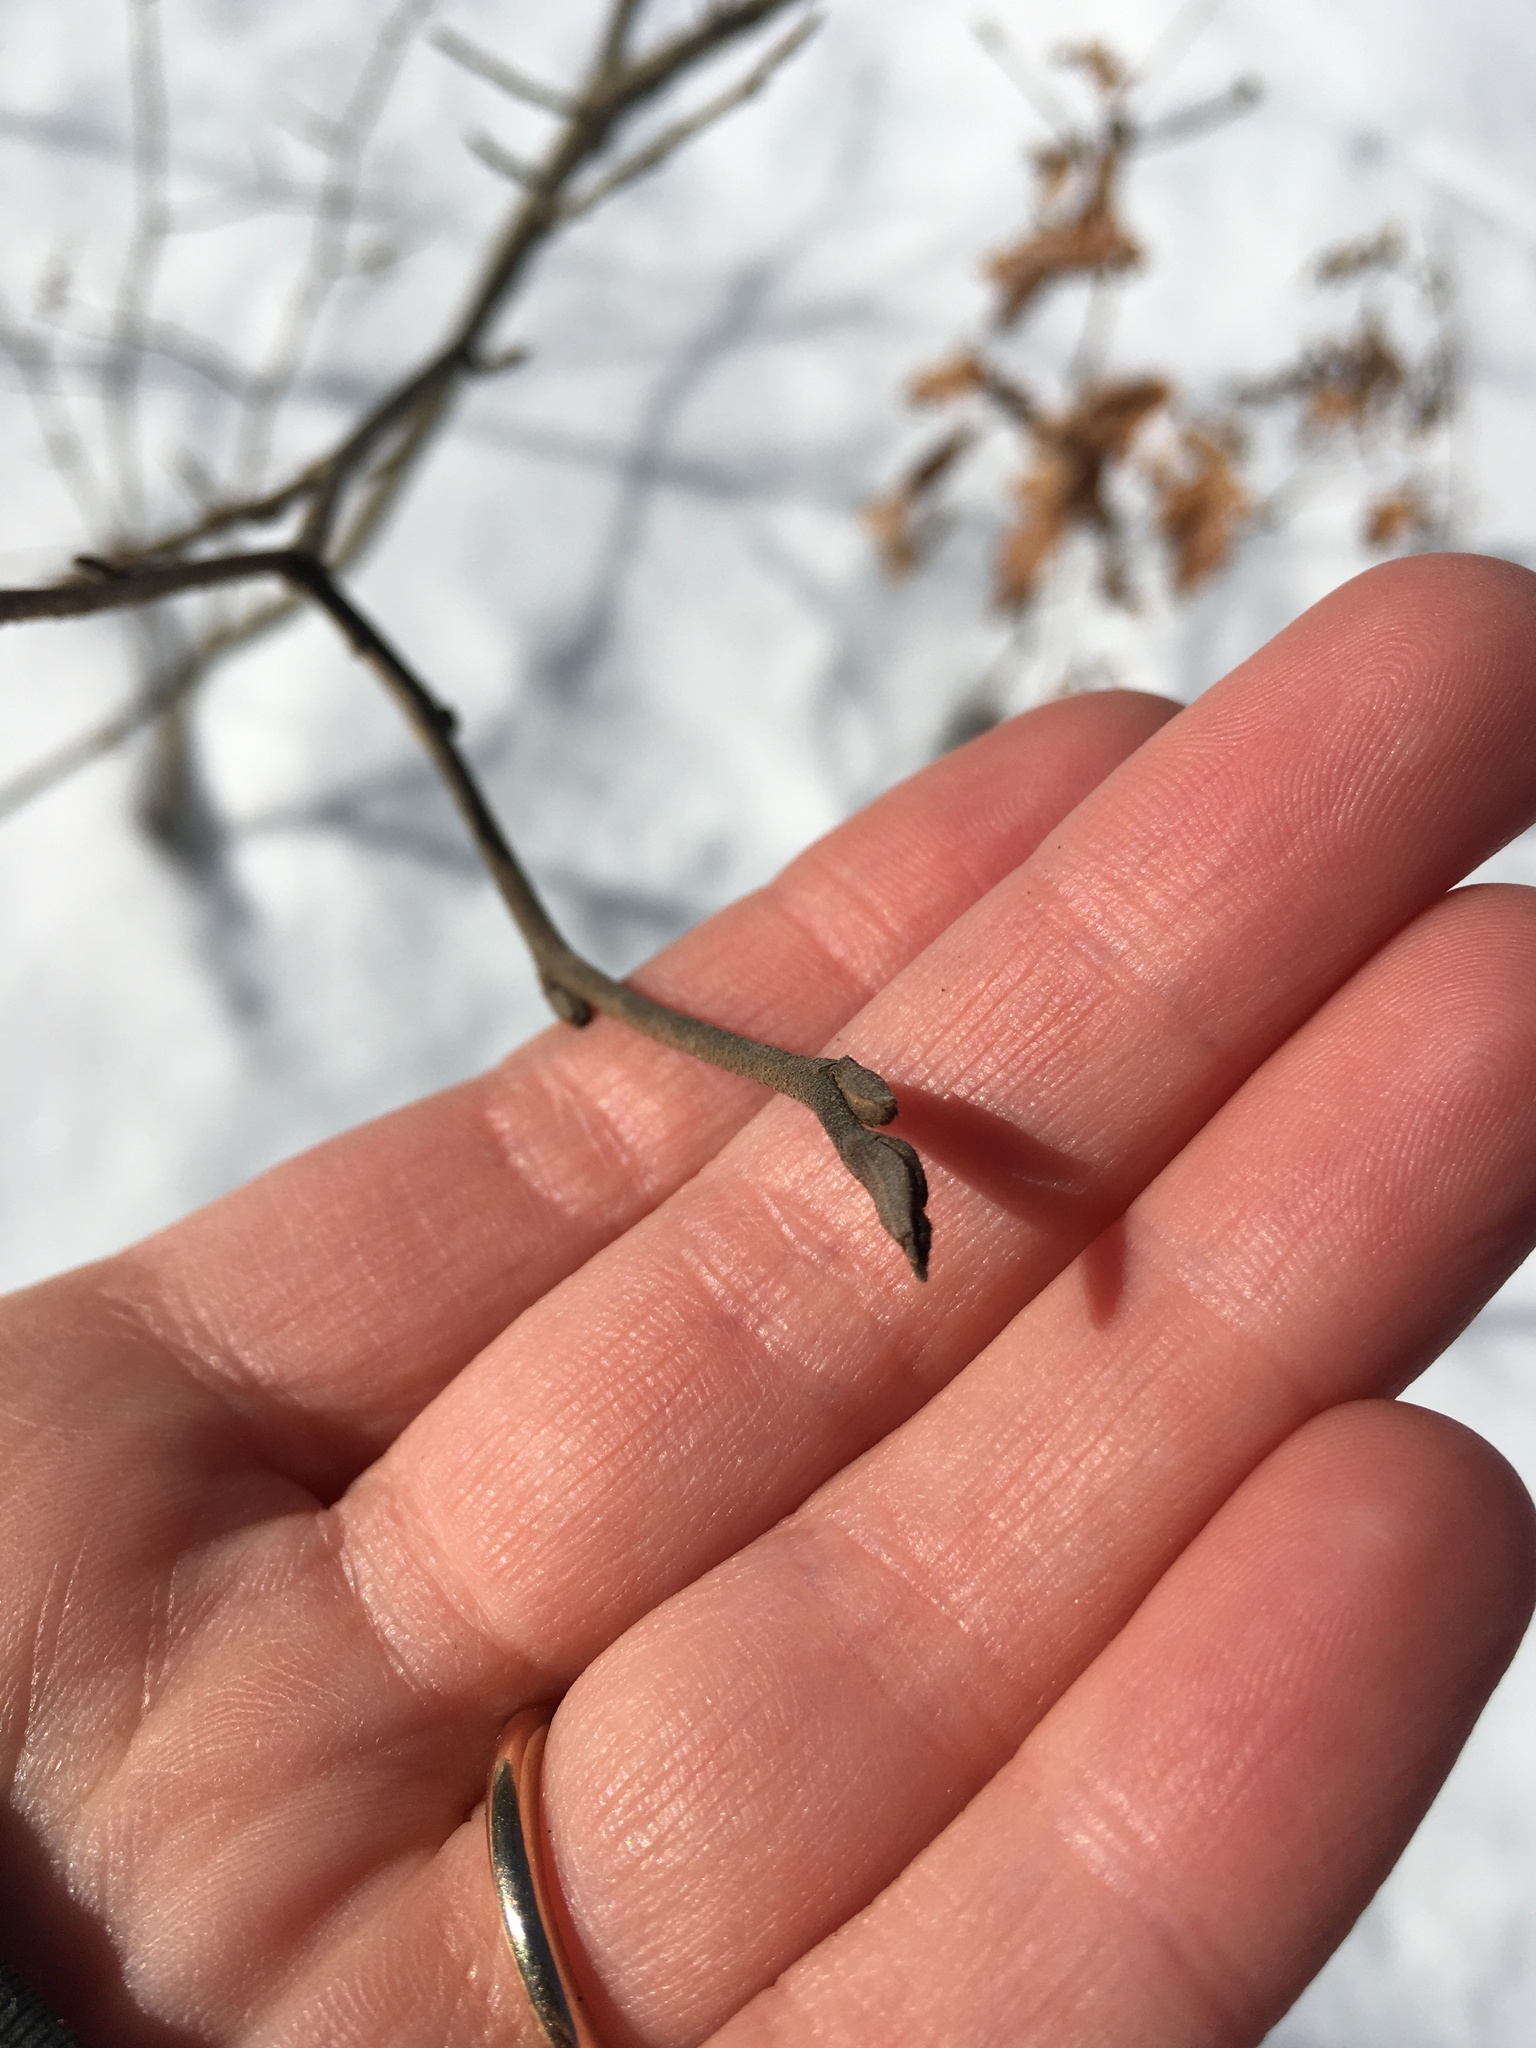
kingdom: Plantae
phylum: Tracheophyta
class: Magnoliopsida
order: Saxifragales
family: Hamamelidaceae
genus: Hamamelis
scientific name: Hamamelis virginiana
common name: Witch-hazel
